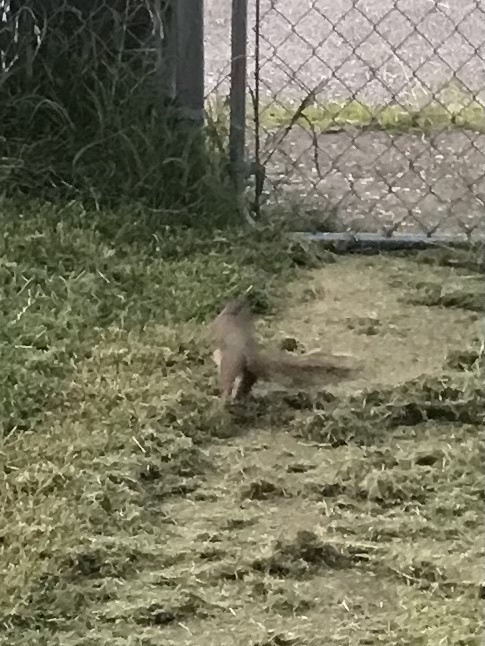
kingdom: Animalia
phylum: Chordata
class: Mammalia
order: Rodentia
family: Sciuridae
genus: Sciurus
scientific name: Sciurus carolinensis
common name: Eastern gray squirrel
